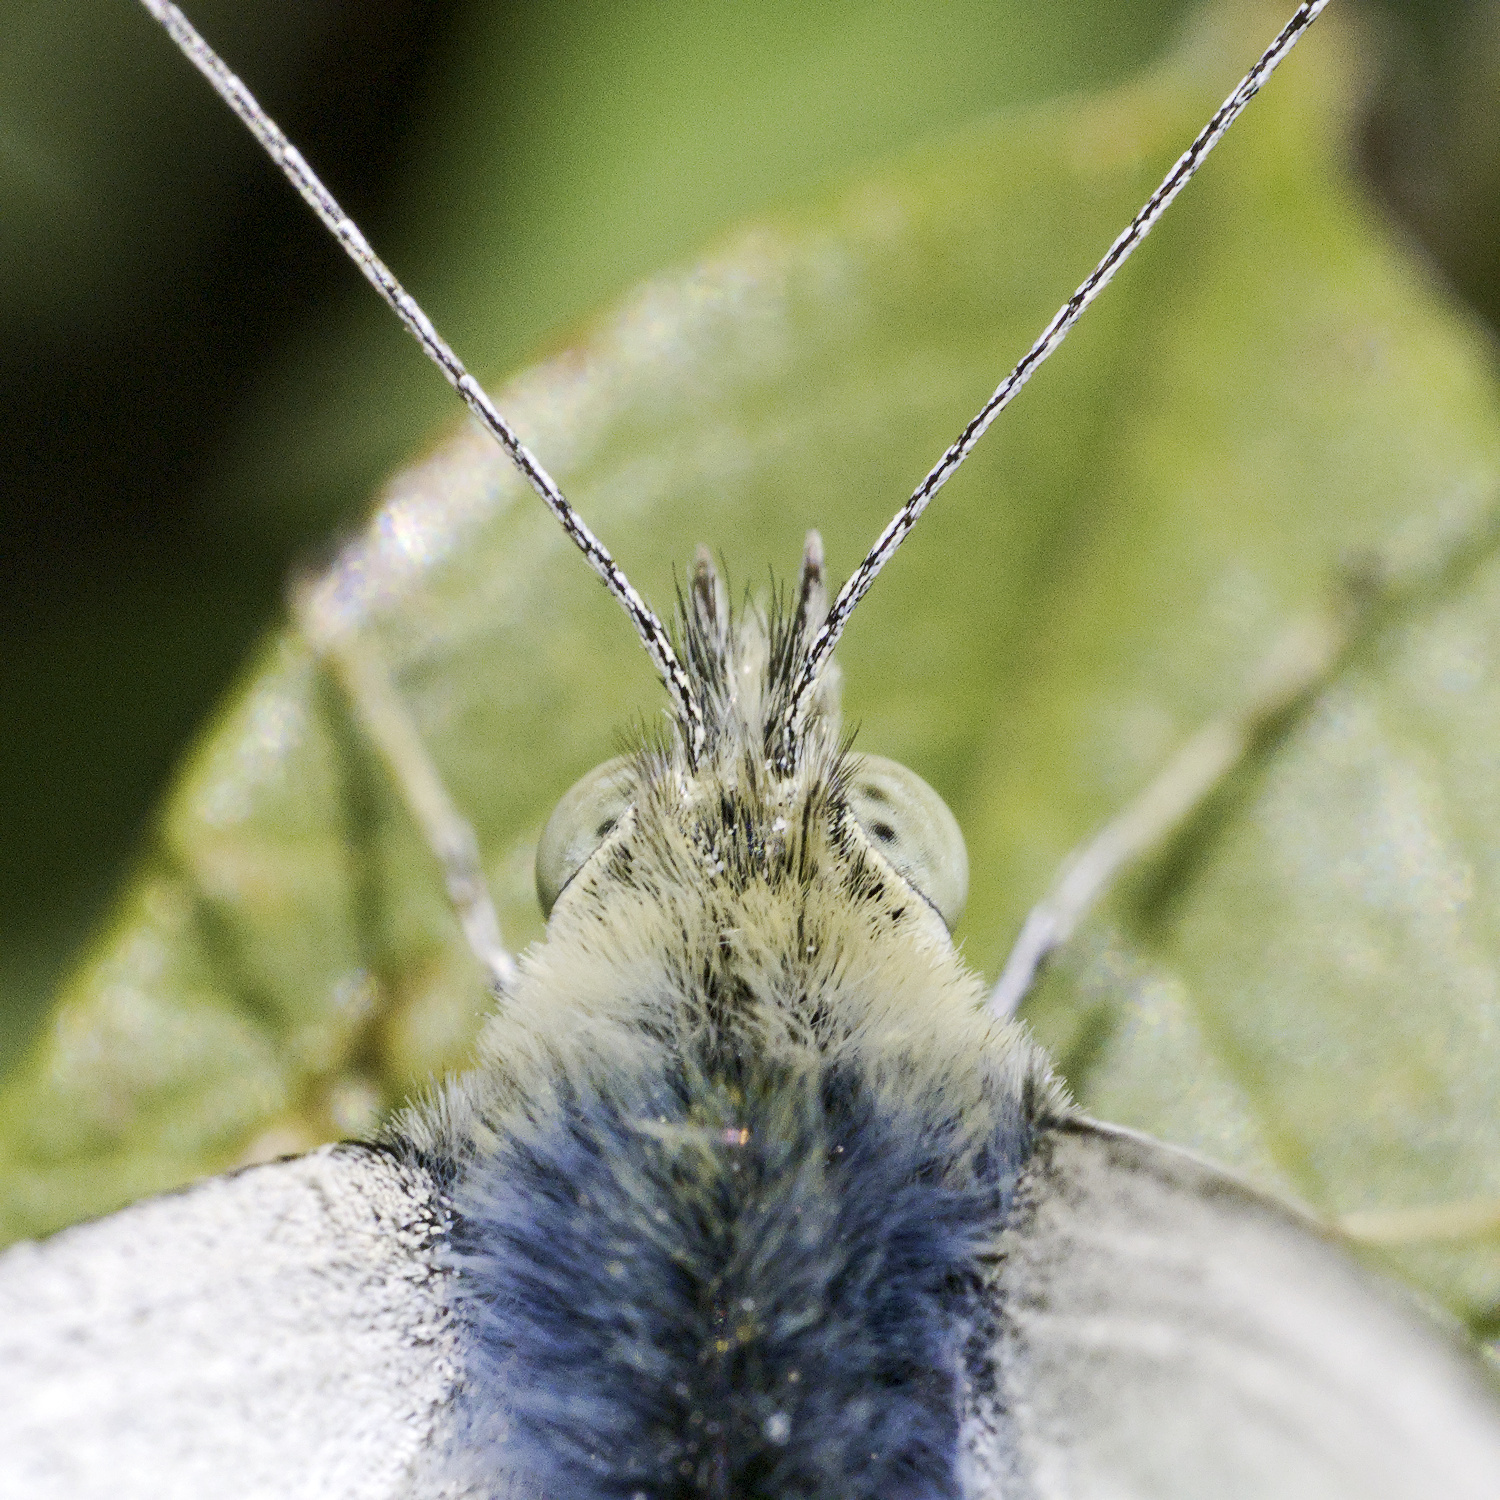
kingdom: Animalia
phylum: Arthropoda
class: Insecta
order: Lepidoptera
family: Pieridae
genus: Pieris
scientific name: Pieris rapae
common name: Small white
